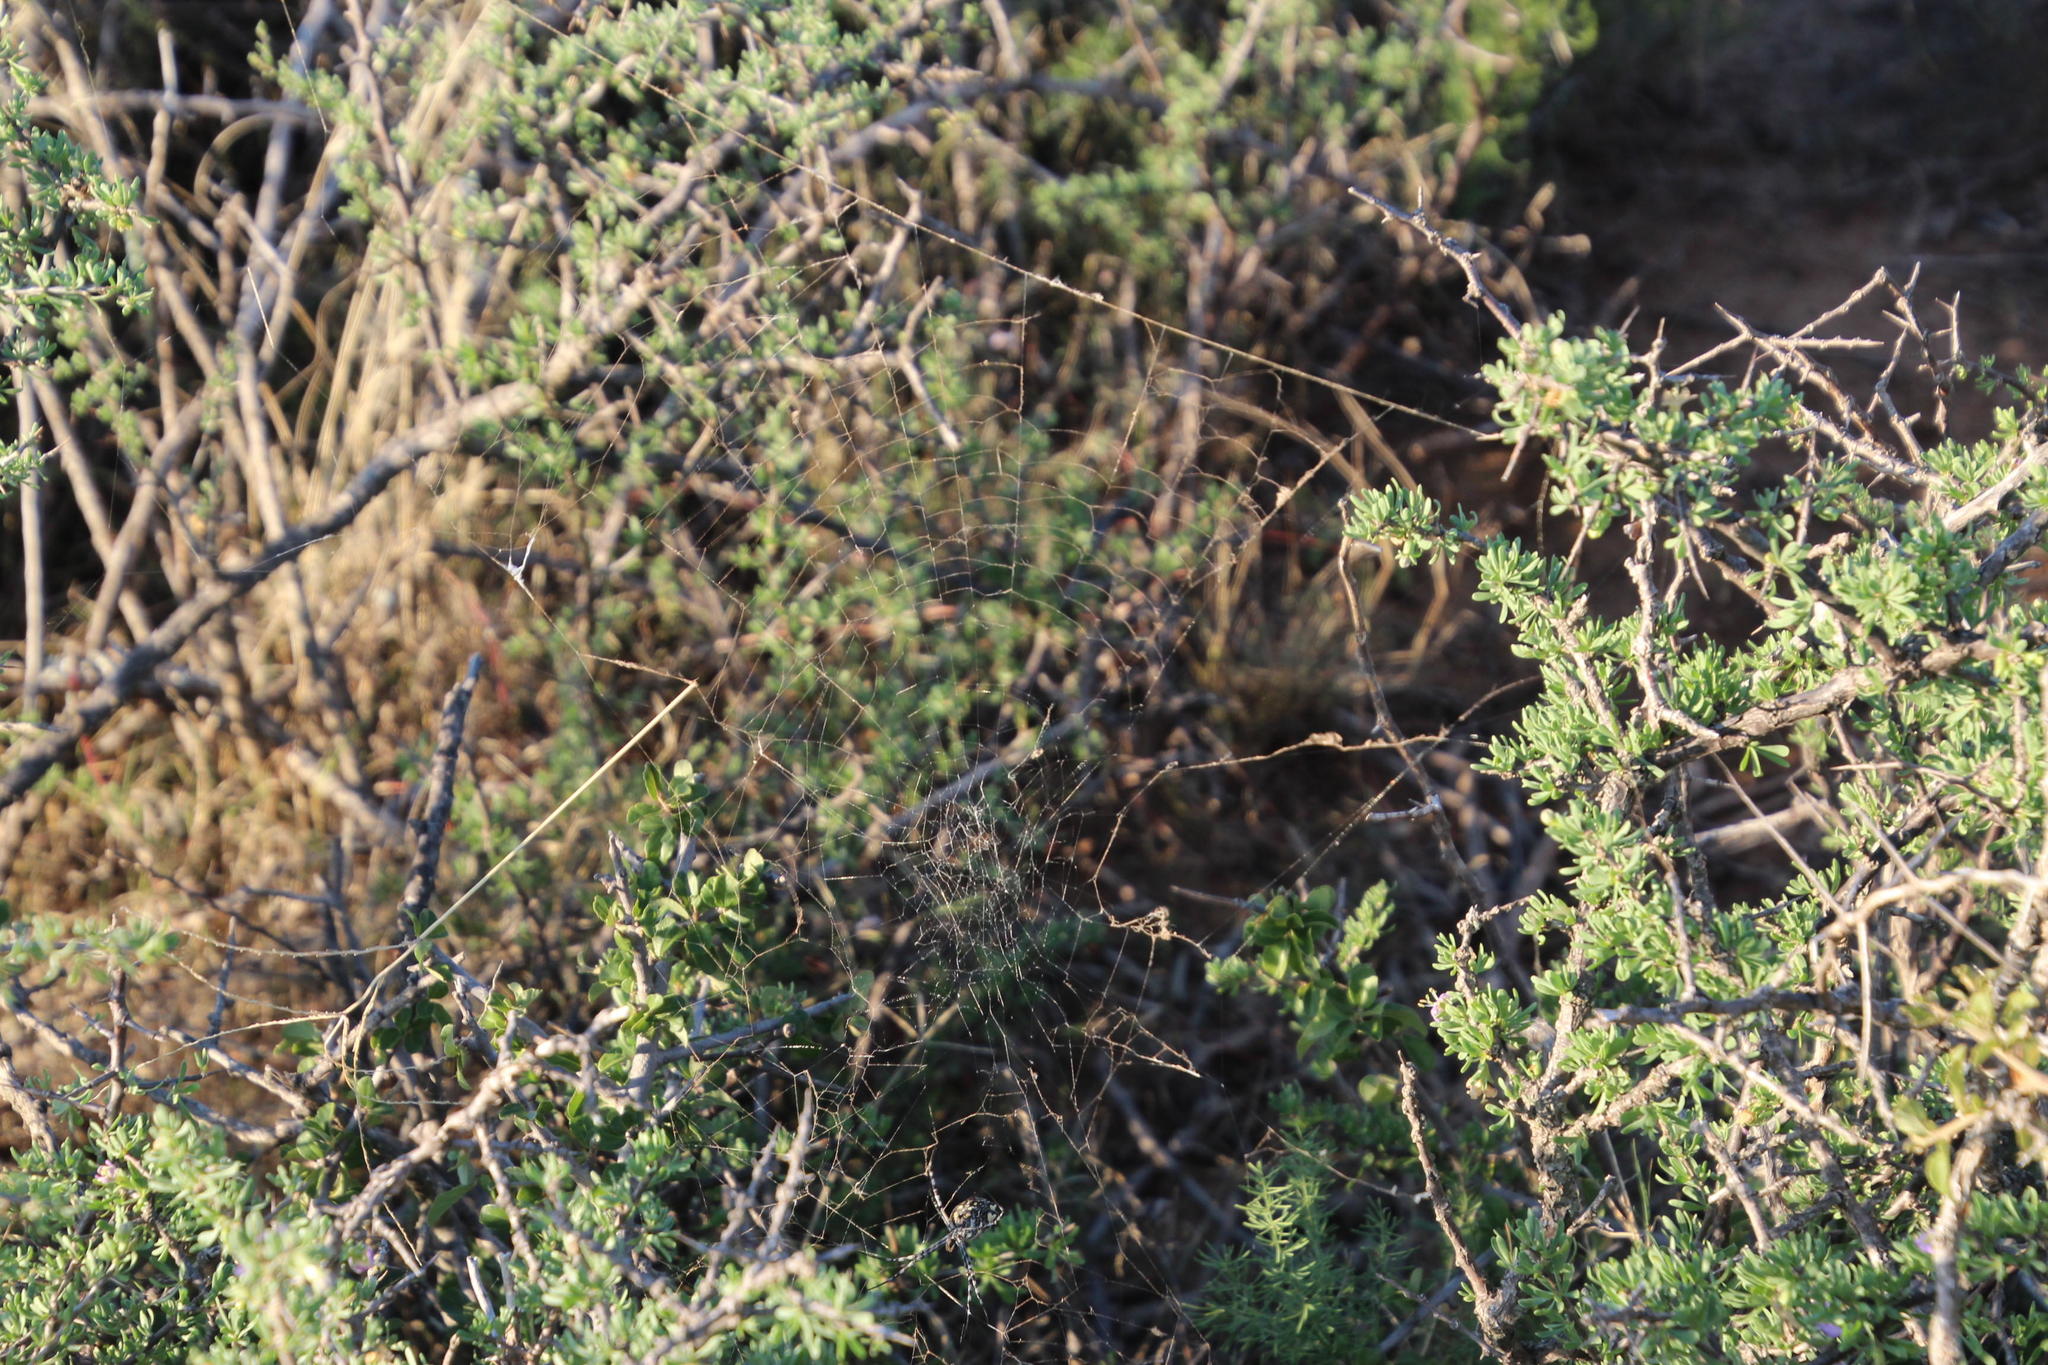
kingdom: Animalia
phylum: Arthropoda
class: Arachnida
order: Araneae
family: Araneidae
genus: Argiope
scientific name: Argiope australis
